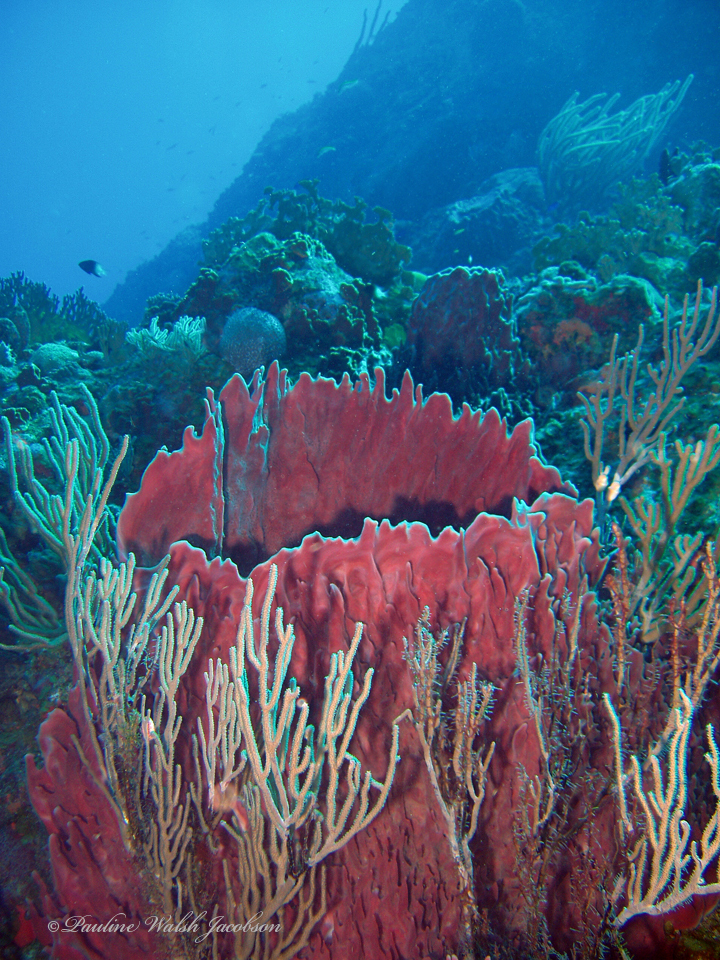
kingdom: Animalia
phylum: Porifera
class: Demospongiae
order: Haplosclerida
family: Petrosiidae
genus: Xestospongia
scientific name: Xestospongia muta
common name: Giant barrel sponge
